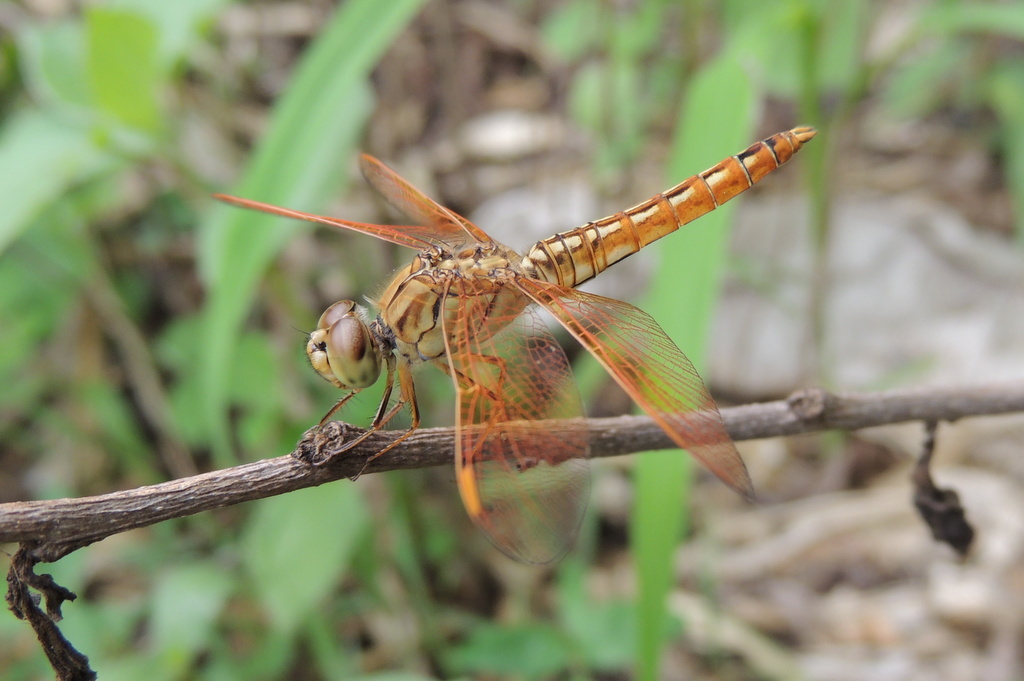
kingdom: Animalia
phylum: Arthropoda
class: Insecta
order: Odonata
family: Libellulidae
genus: Brachythemis
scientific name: Brachythemis contaminata
